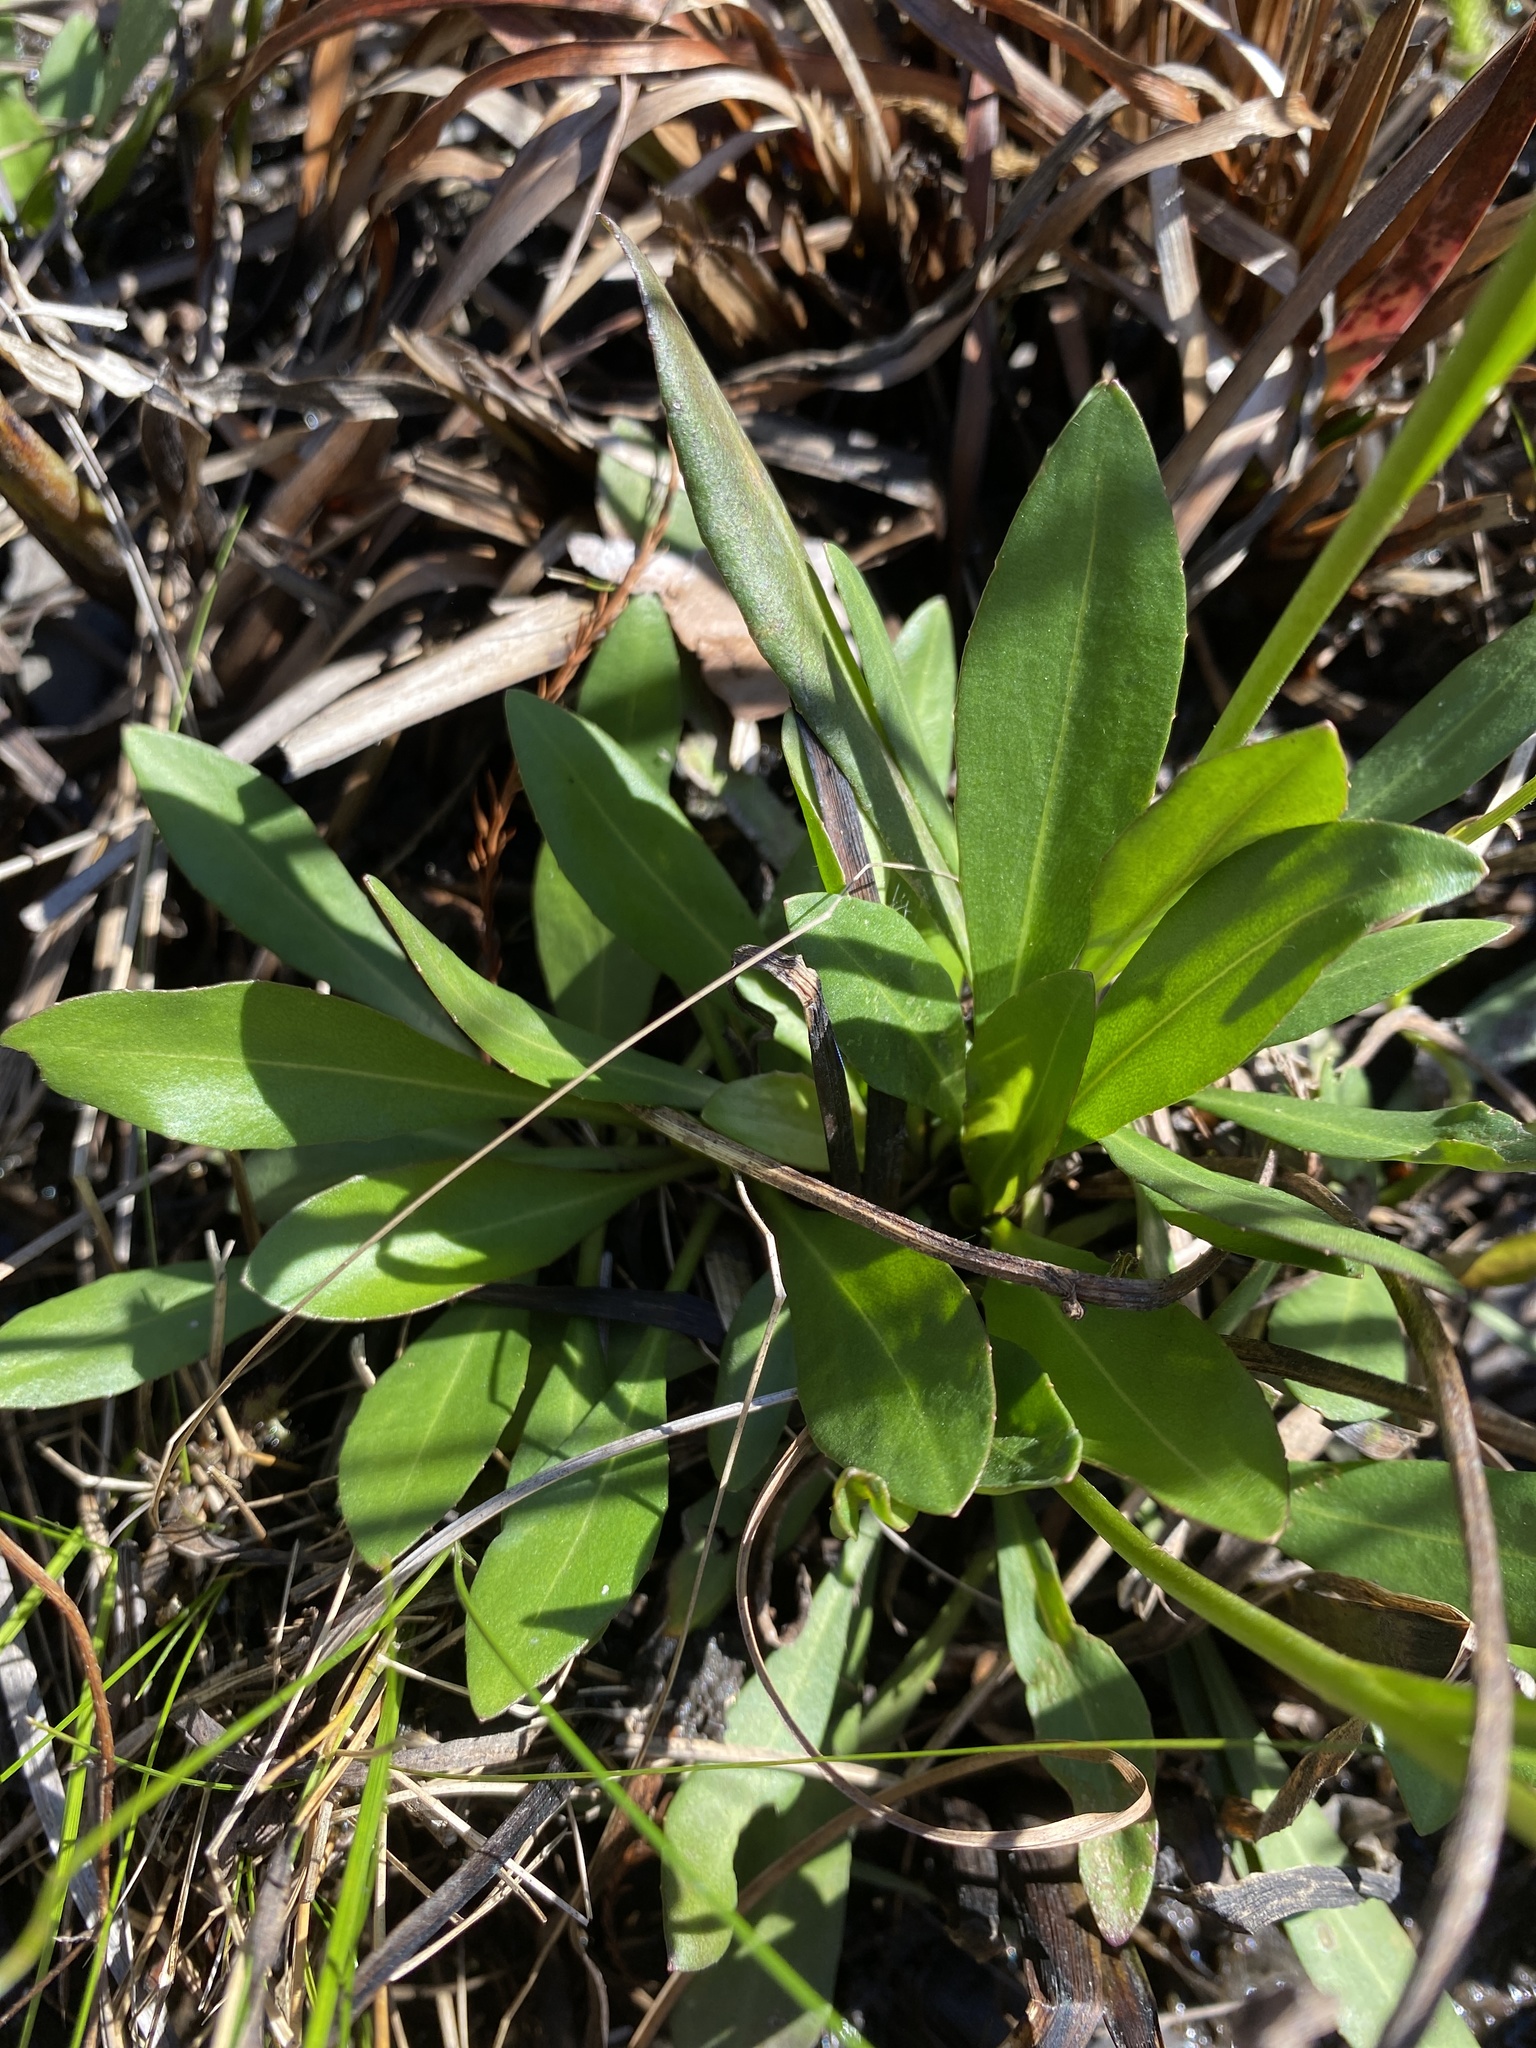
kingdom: Plantae
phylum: Tracheophyta
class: Magnoliopsida
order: Asterales
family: Asteraceae
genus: Erigeron
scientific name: Erigeron vernus
